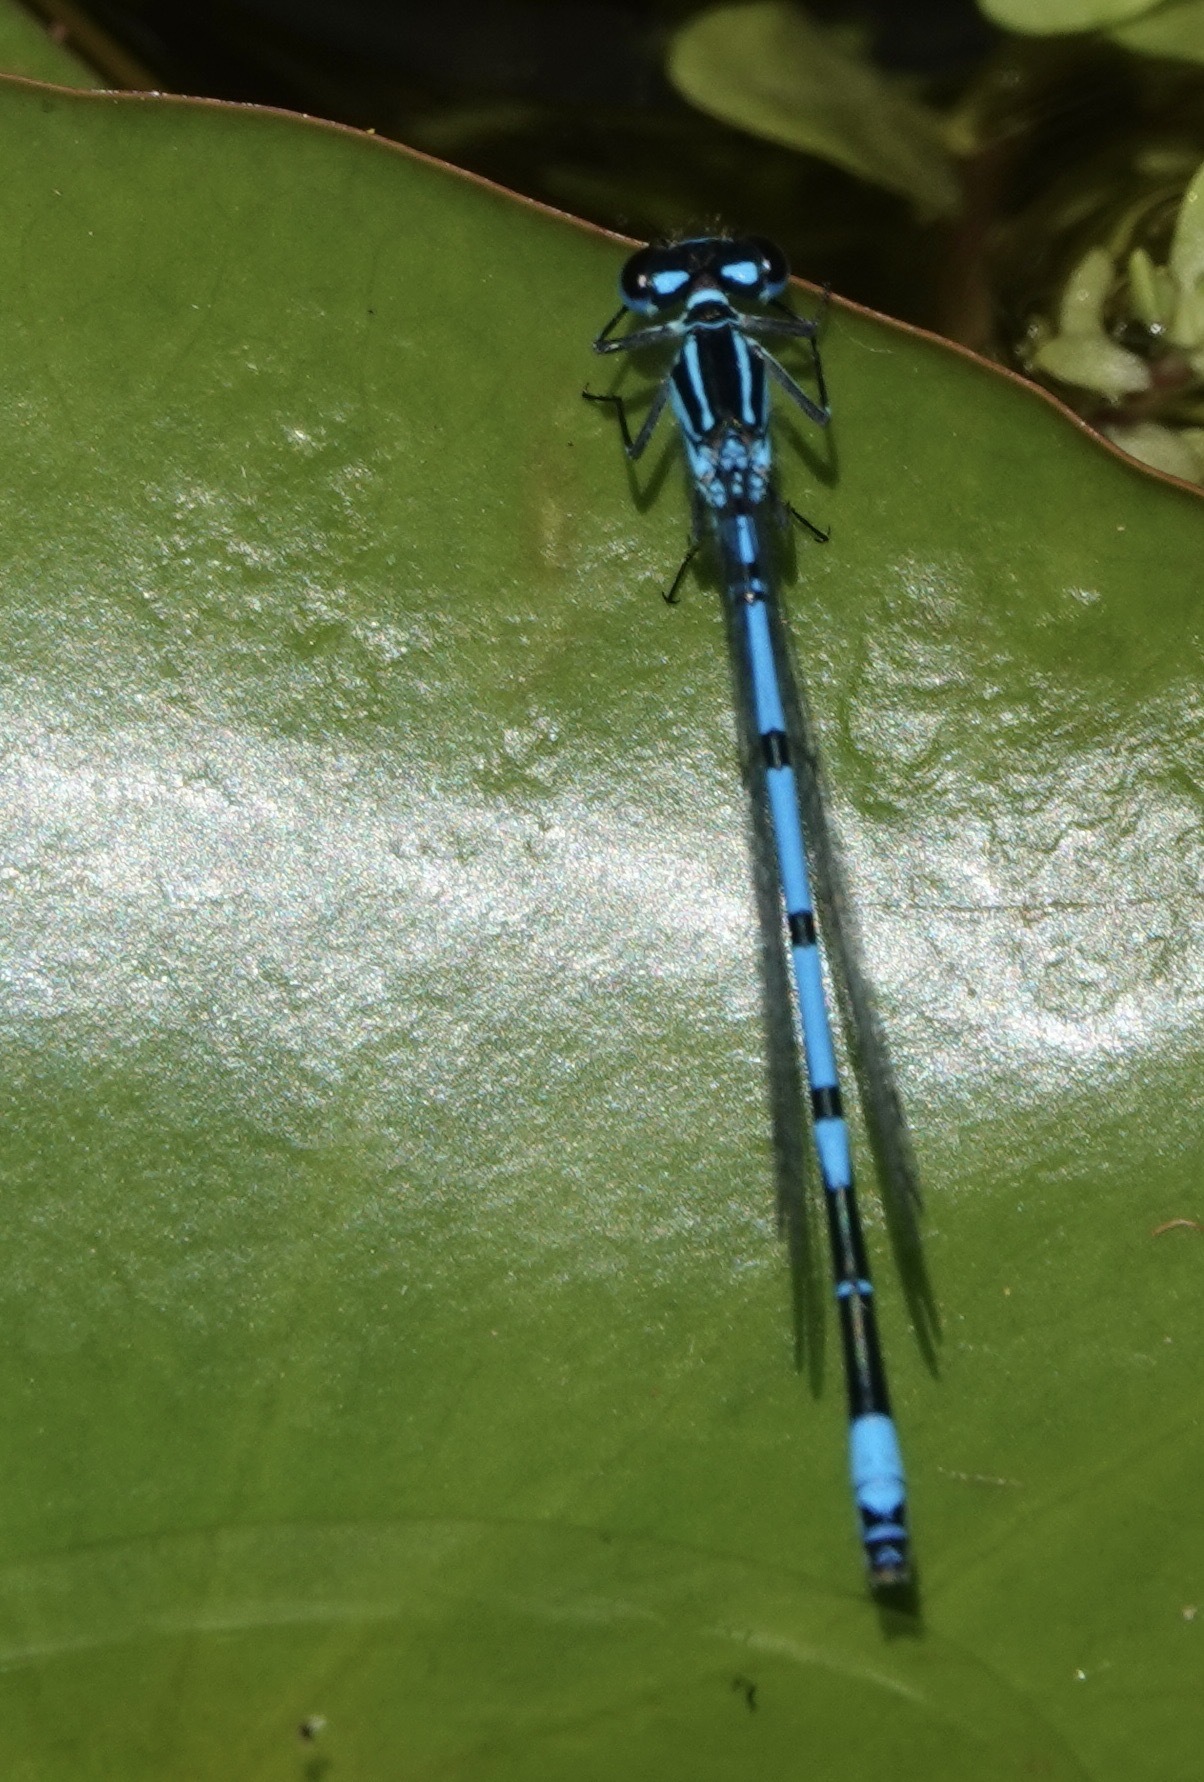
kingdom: Animalia
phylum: Arthropoda
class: Insecta
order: Odonata
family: Coenagrionidae
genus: Coenagrion
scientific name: Coenagrion puella
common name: Azure damselfly
